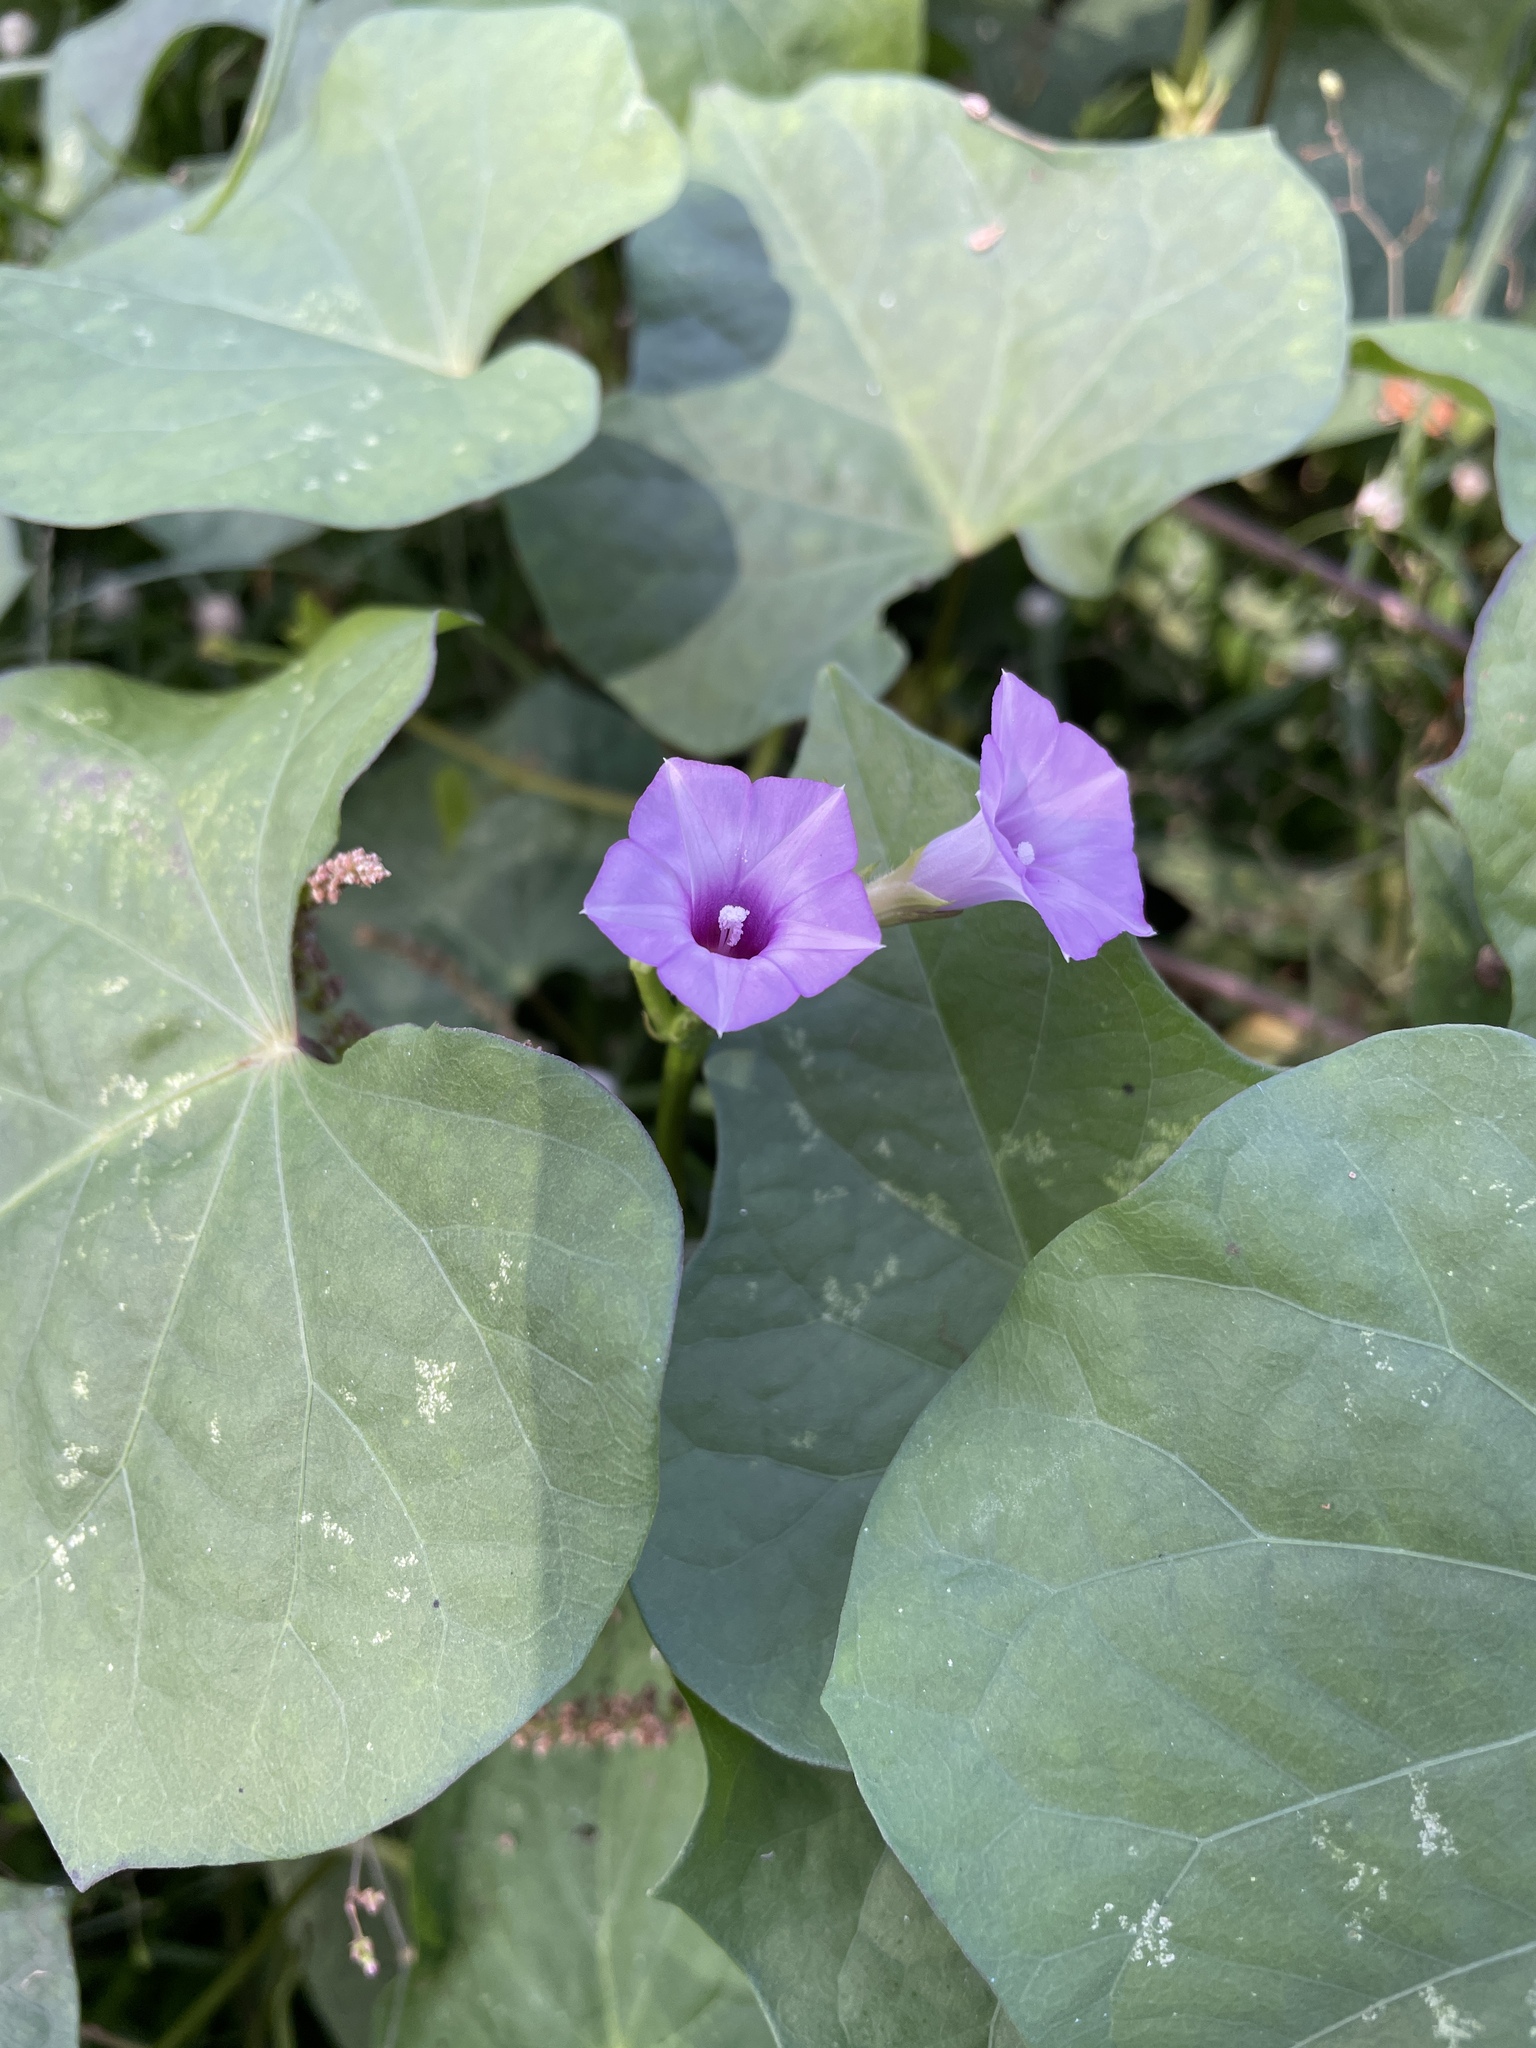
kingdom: Plantae
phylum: Tracheophyta
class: Magnoliopsida
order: Solanales
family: Convolvulaceae
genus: Ipomoea
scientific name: Ipomoea triloba
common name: Little-bell
